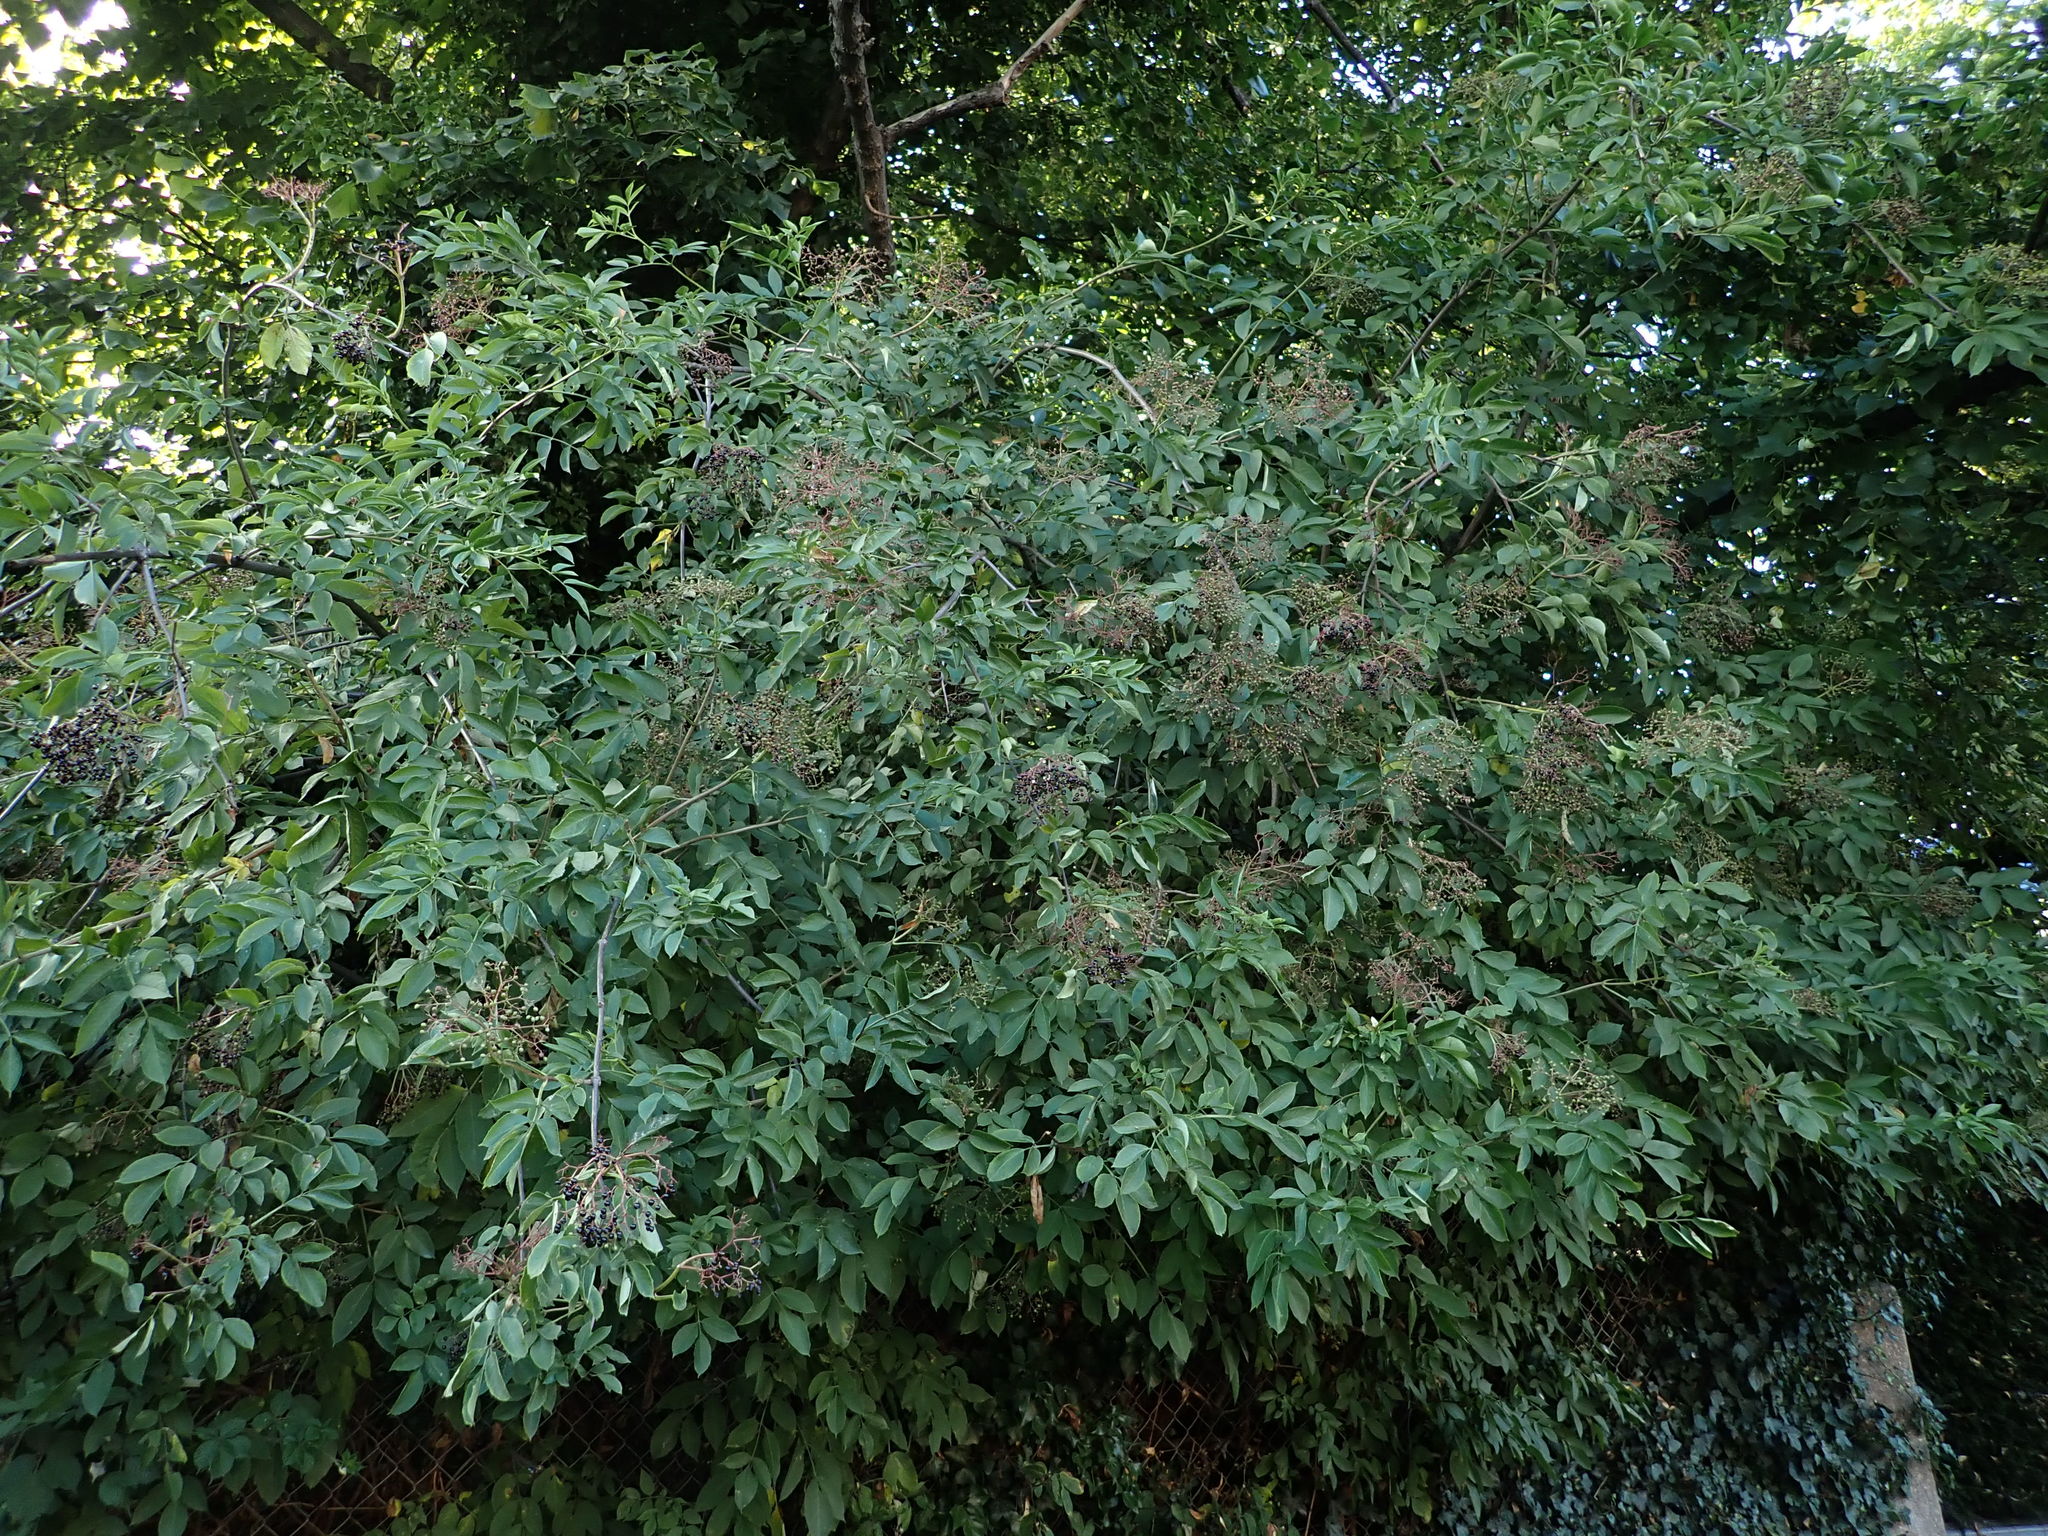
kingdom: Plantae
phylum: Tracheophyta
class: Magnoliopsida
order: Dipsacales
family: Viburnaceae
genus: Sambucus
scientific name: Sambucus nigra
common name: Elder
